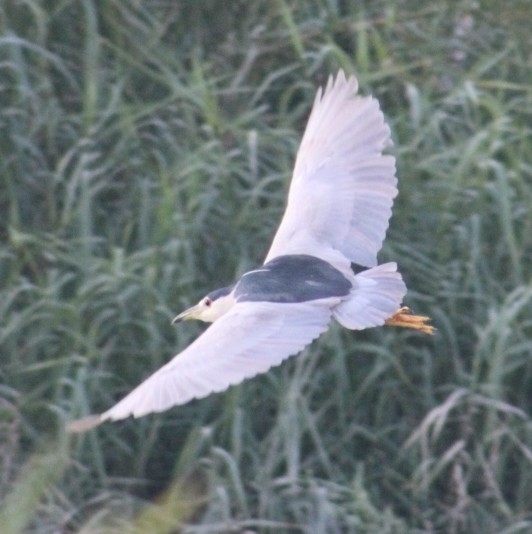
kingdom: Animalia
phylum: Chordata
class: Aves
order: Pelecaniformes
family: Ardeidae
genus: Nycticorax
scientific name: Nycticorax nycticorax
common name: Black-crowned night heron
